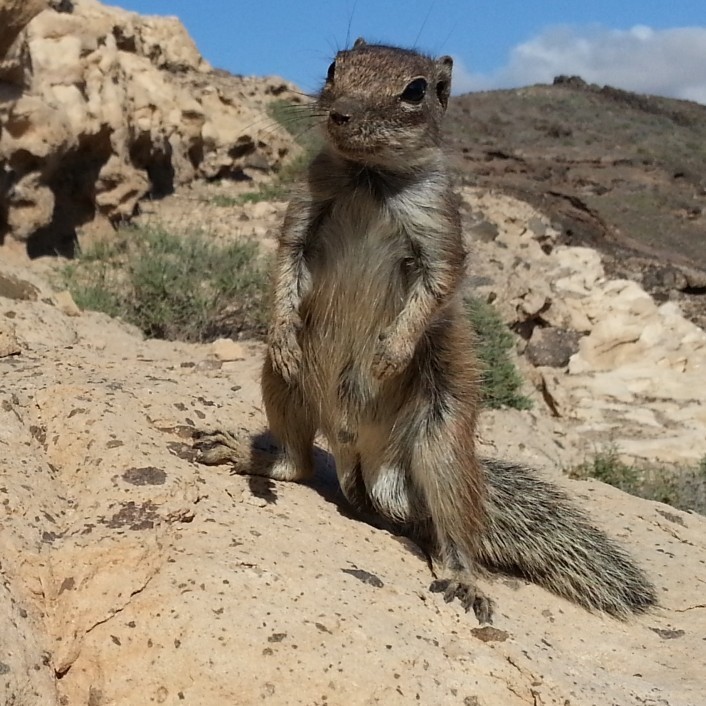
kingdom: Animalia
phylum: Chordata
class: Mammalia
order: Rodentia
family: Sciuridae
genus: Atlantoxerus
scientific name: Atlantoxerus getulus
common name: Barbary ground squirrel
